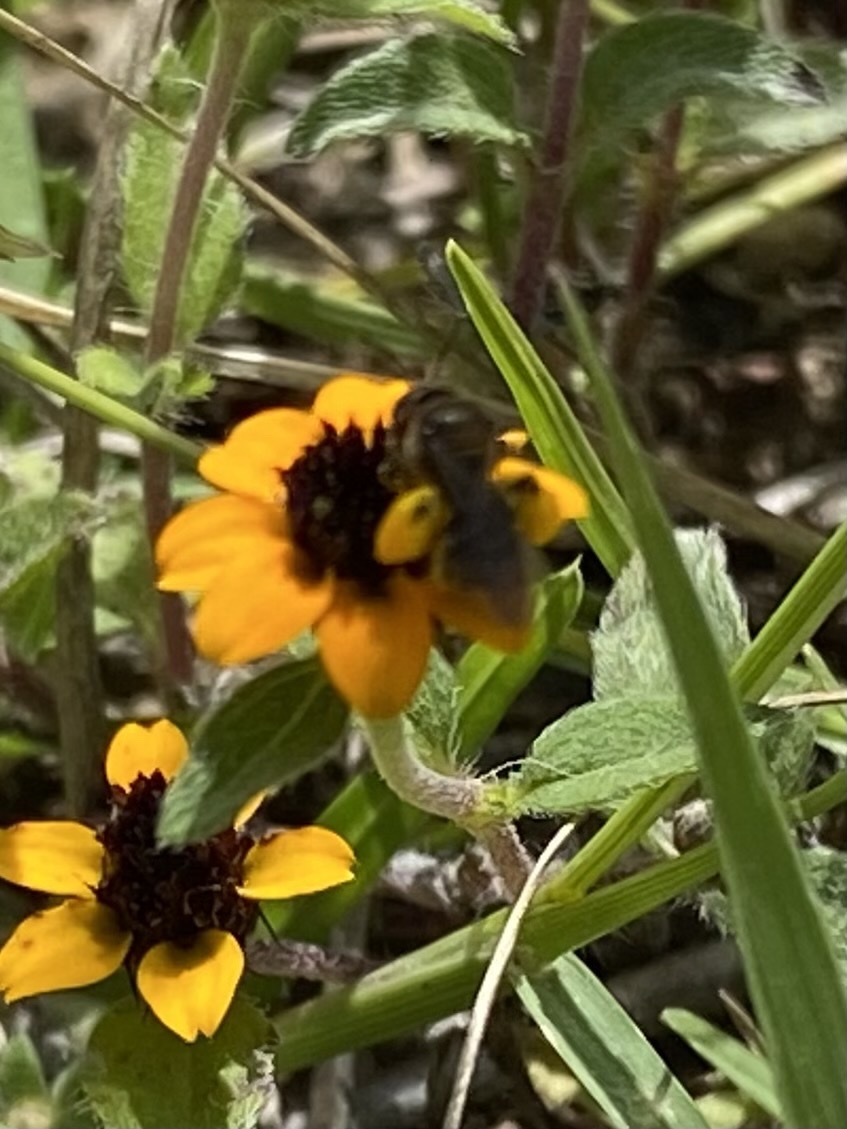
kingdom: Animalia
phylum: Arthropoda
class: Insecta
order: Hymenoptera
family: Andrenidae
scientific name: Andrenidae
